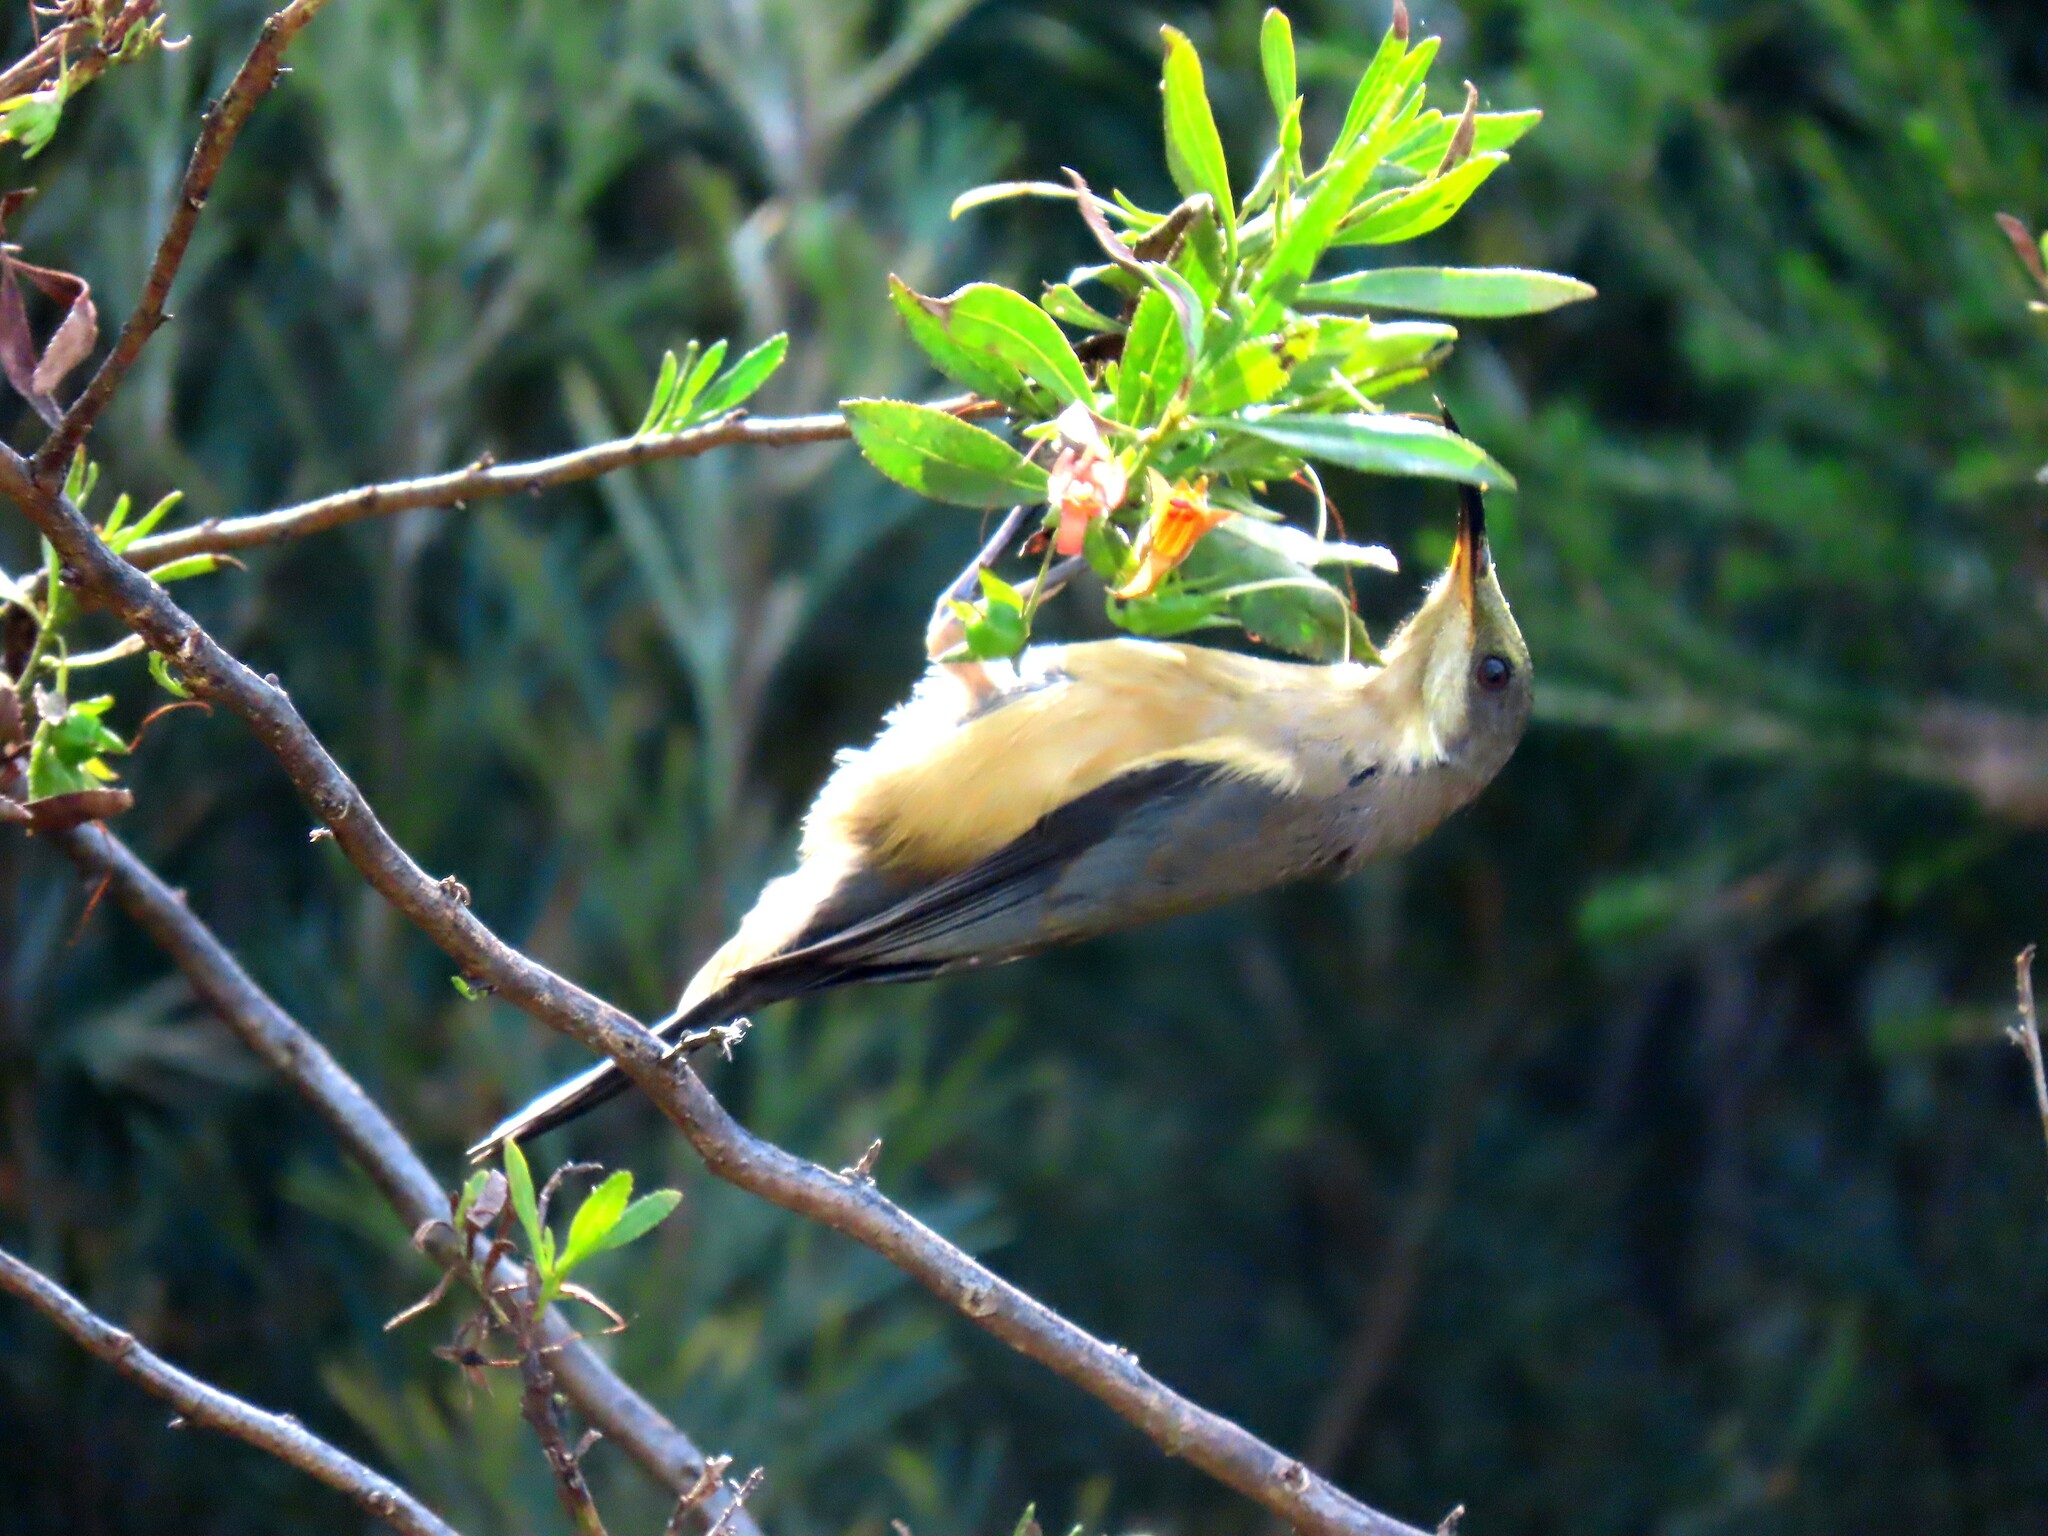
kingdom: Animalia
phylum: Chordata
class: Aves
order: Passeriformes
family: Meliphagidae
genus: Acanthorhynchus
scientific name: Acanthorhynchus tenuirostris
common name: Eastern spinebill
